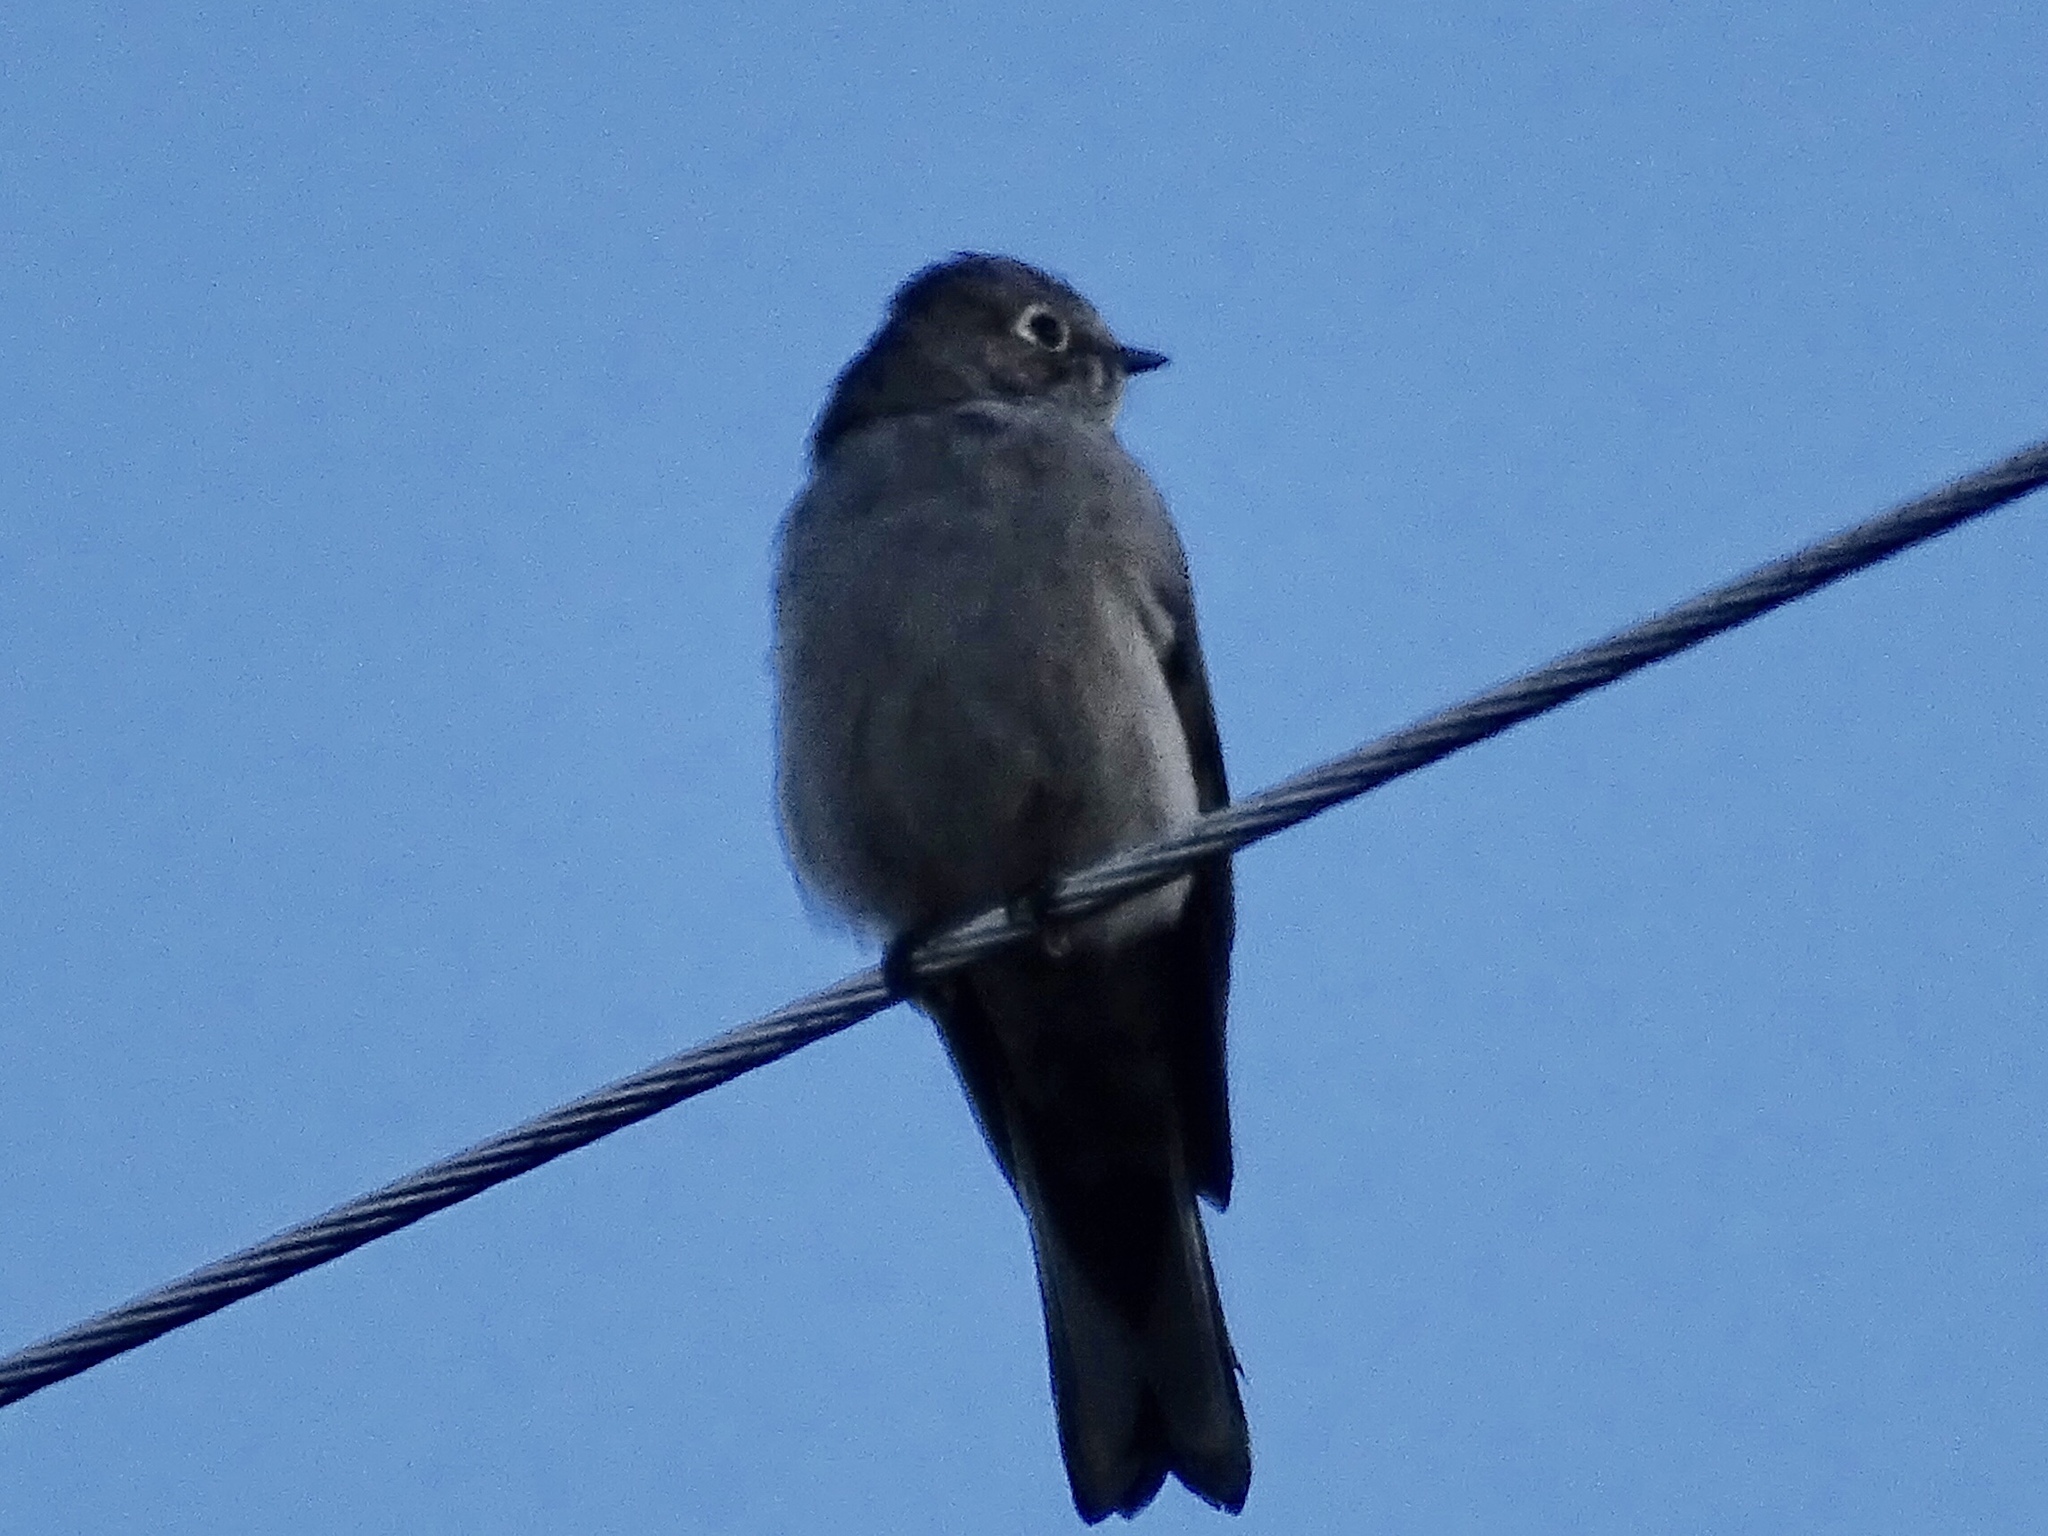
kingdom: Animalia
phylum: Chordata
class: Aves
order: Passeriformes
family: Turdidae
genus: Myadestes
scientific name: Myadestes townsendi
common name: Townsend's solitaire
